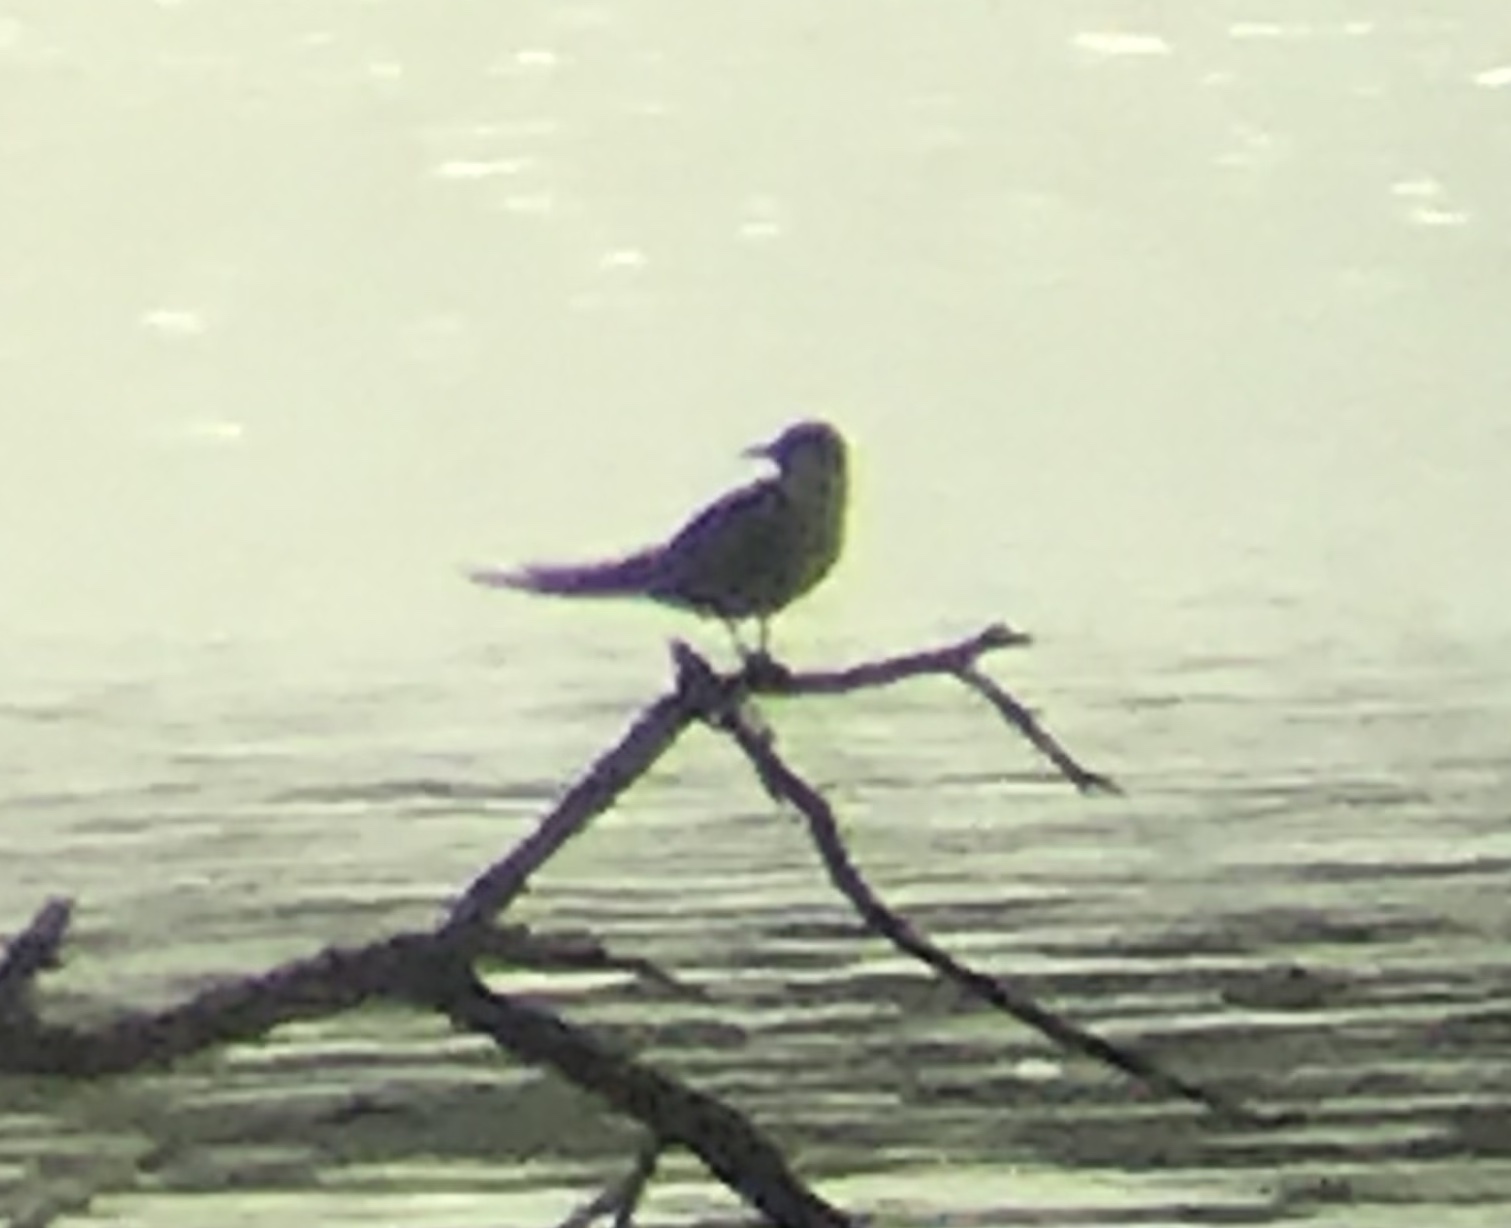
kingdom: Animalia
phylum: Chordata
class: Aves
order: Charadriiformes
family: Laridae
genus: Chlidonias
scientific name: Chlidonias niger
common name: Black tern
